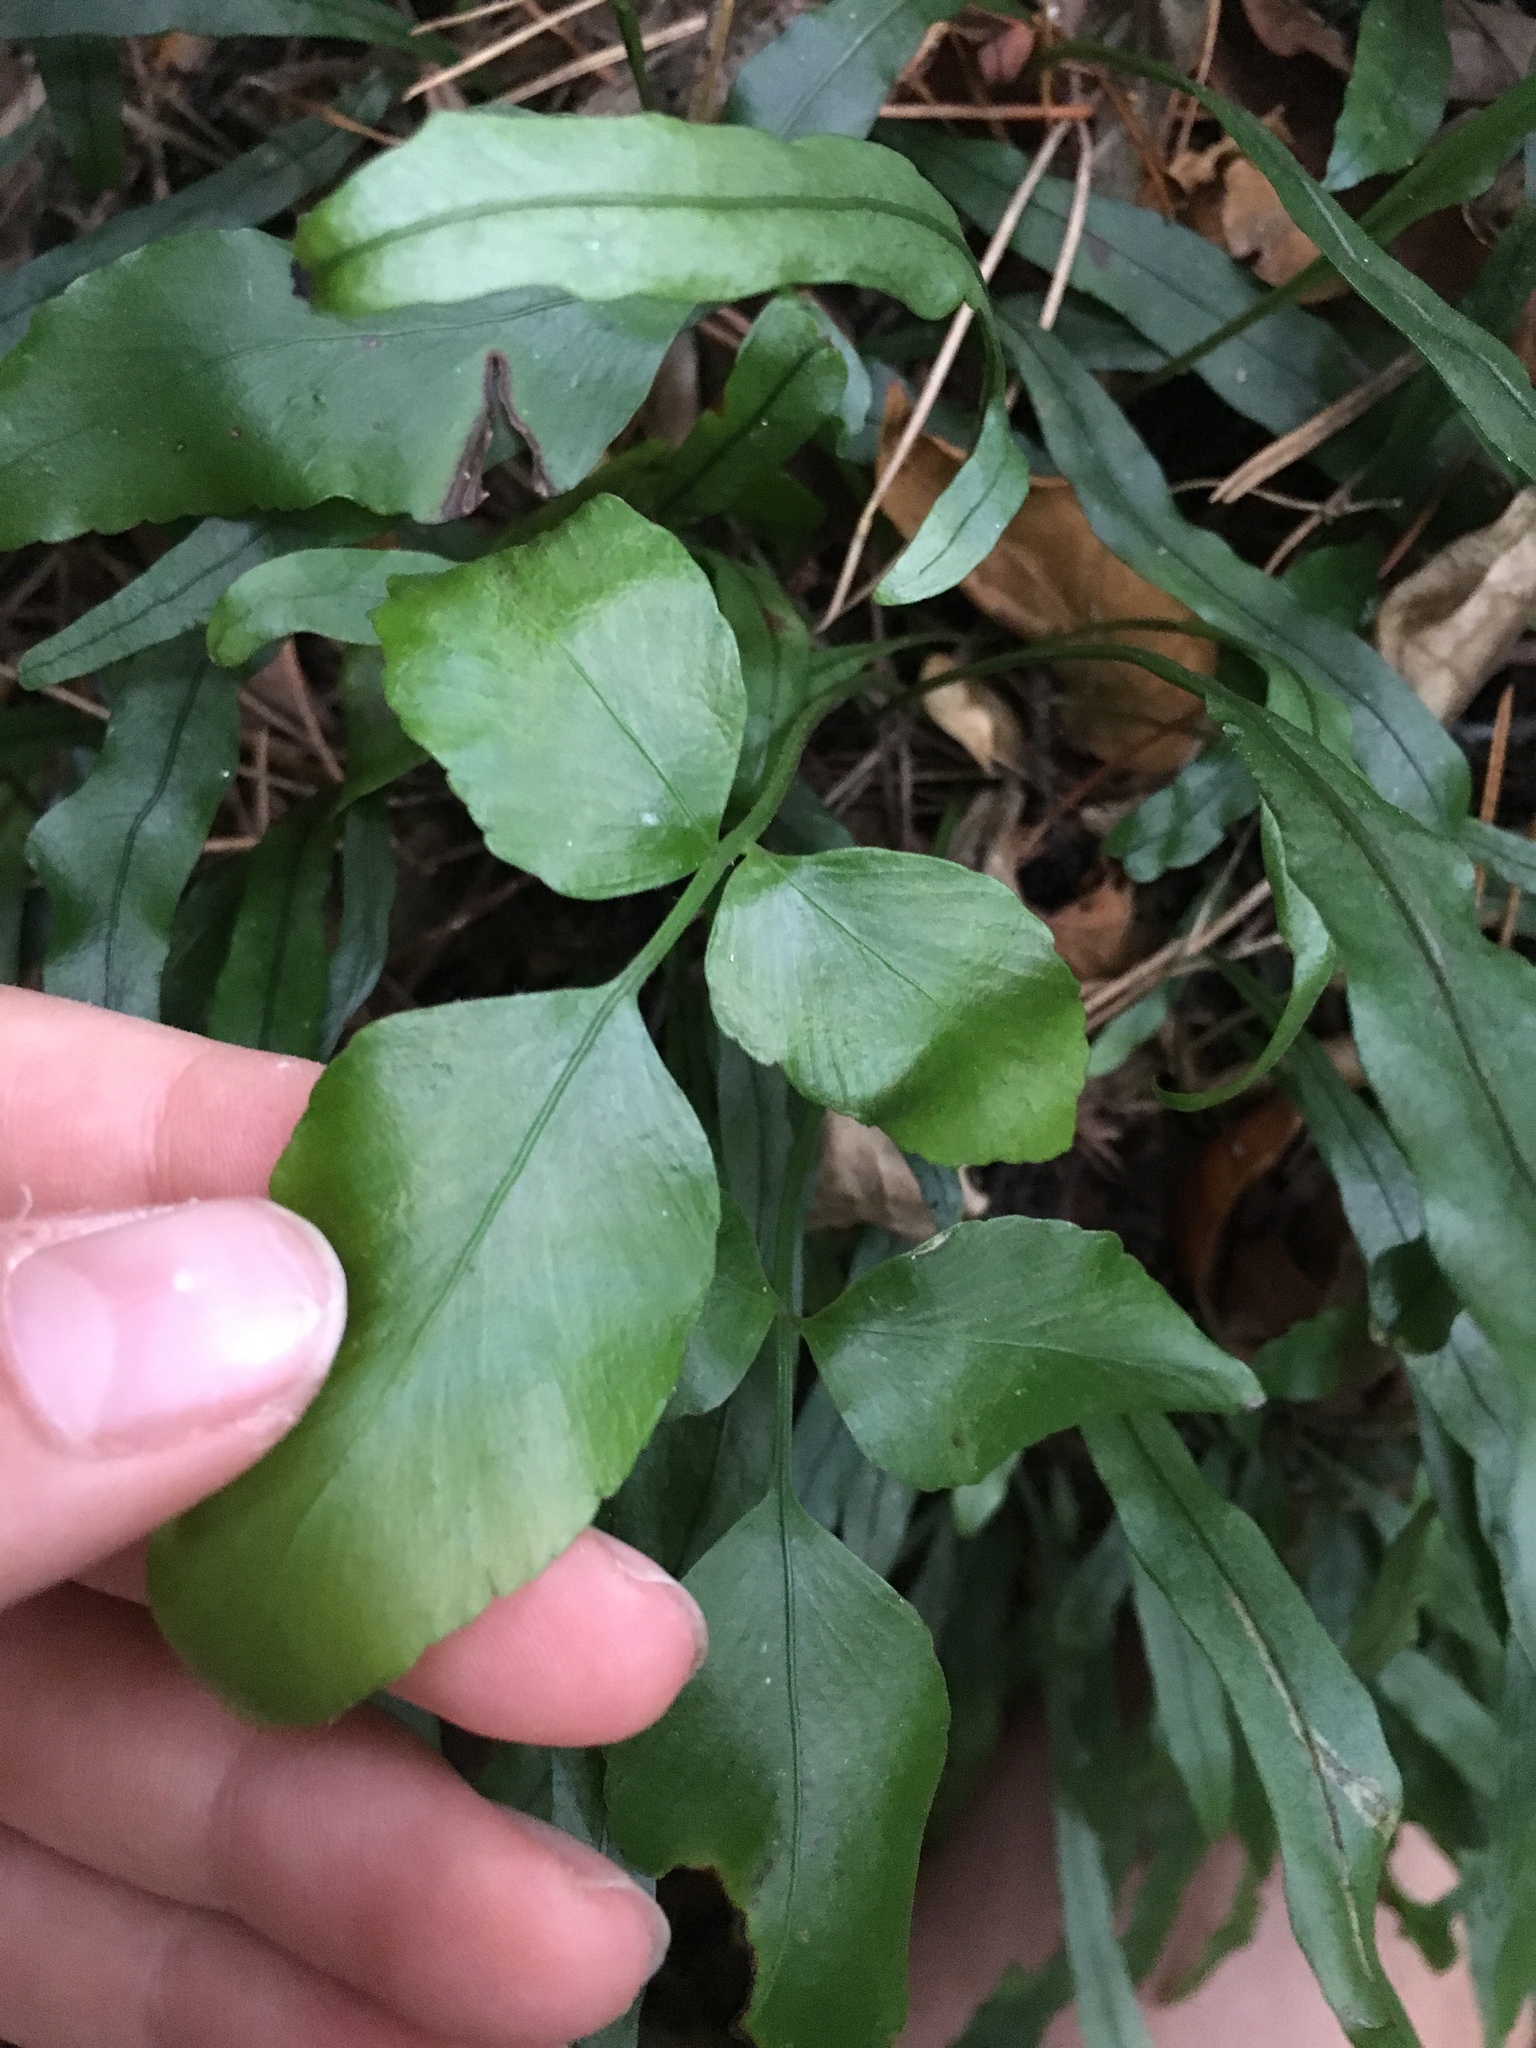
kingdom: Plantae
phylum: Tracheophyta
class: Polypodiopsida
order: Polypodiales
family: Aspleniaceae
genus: Asplenium
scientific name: Asplenium oblongifolium
